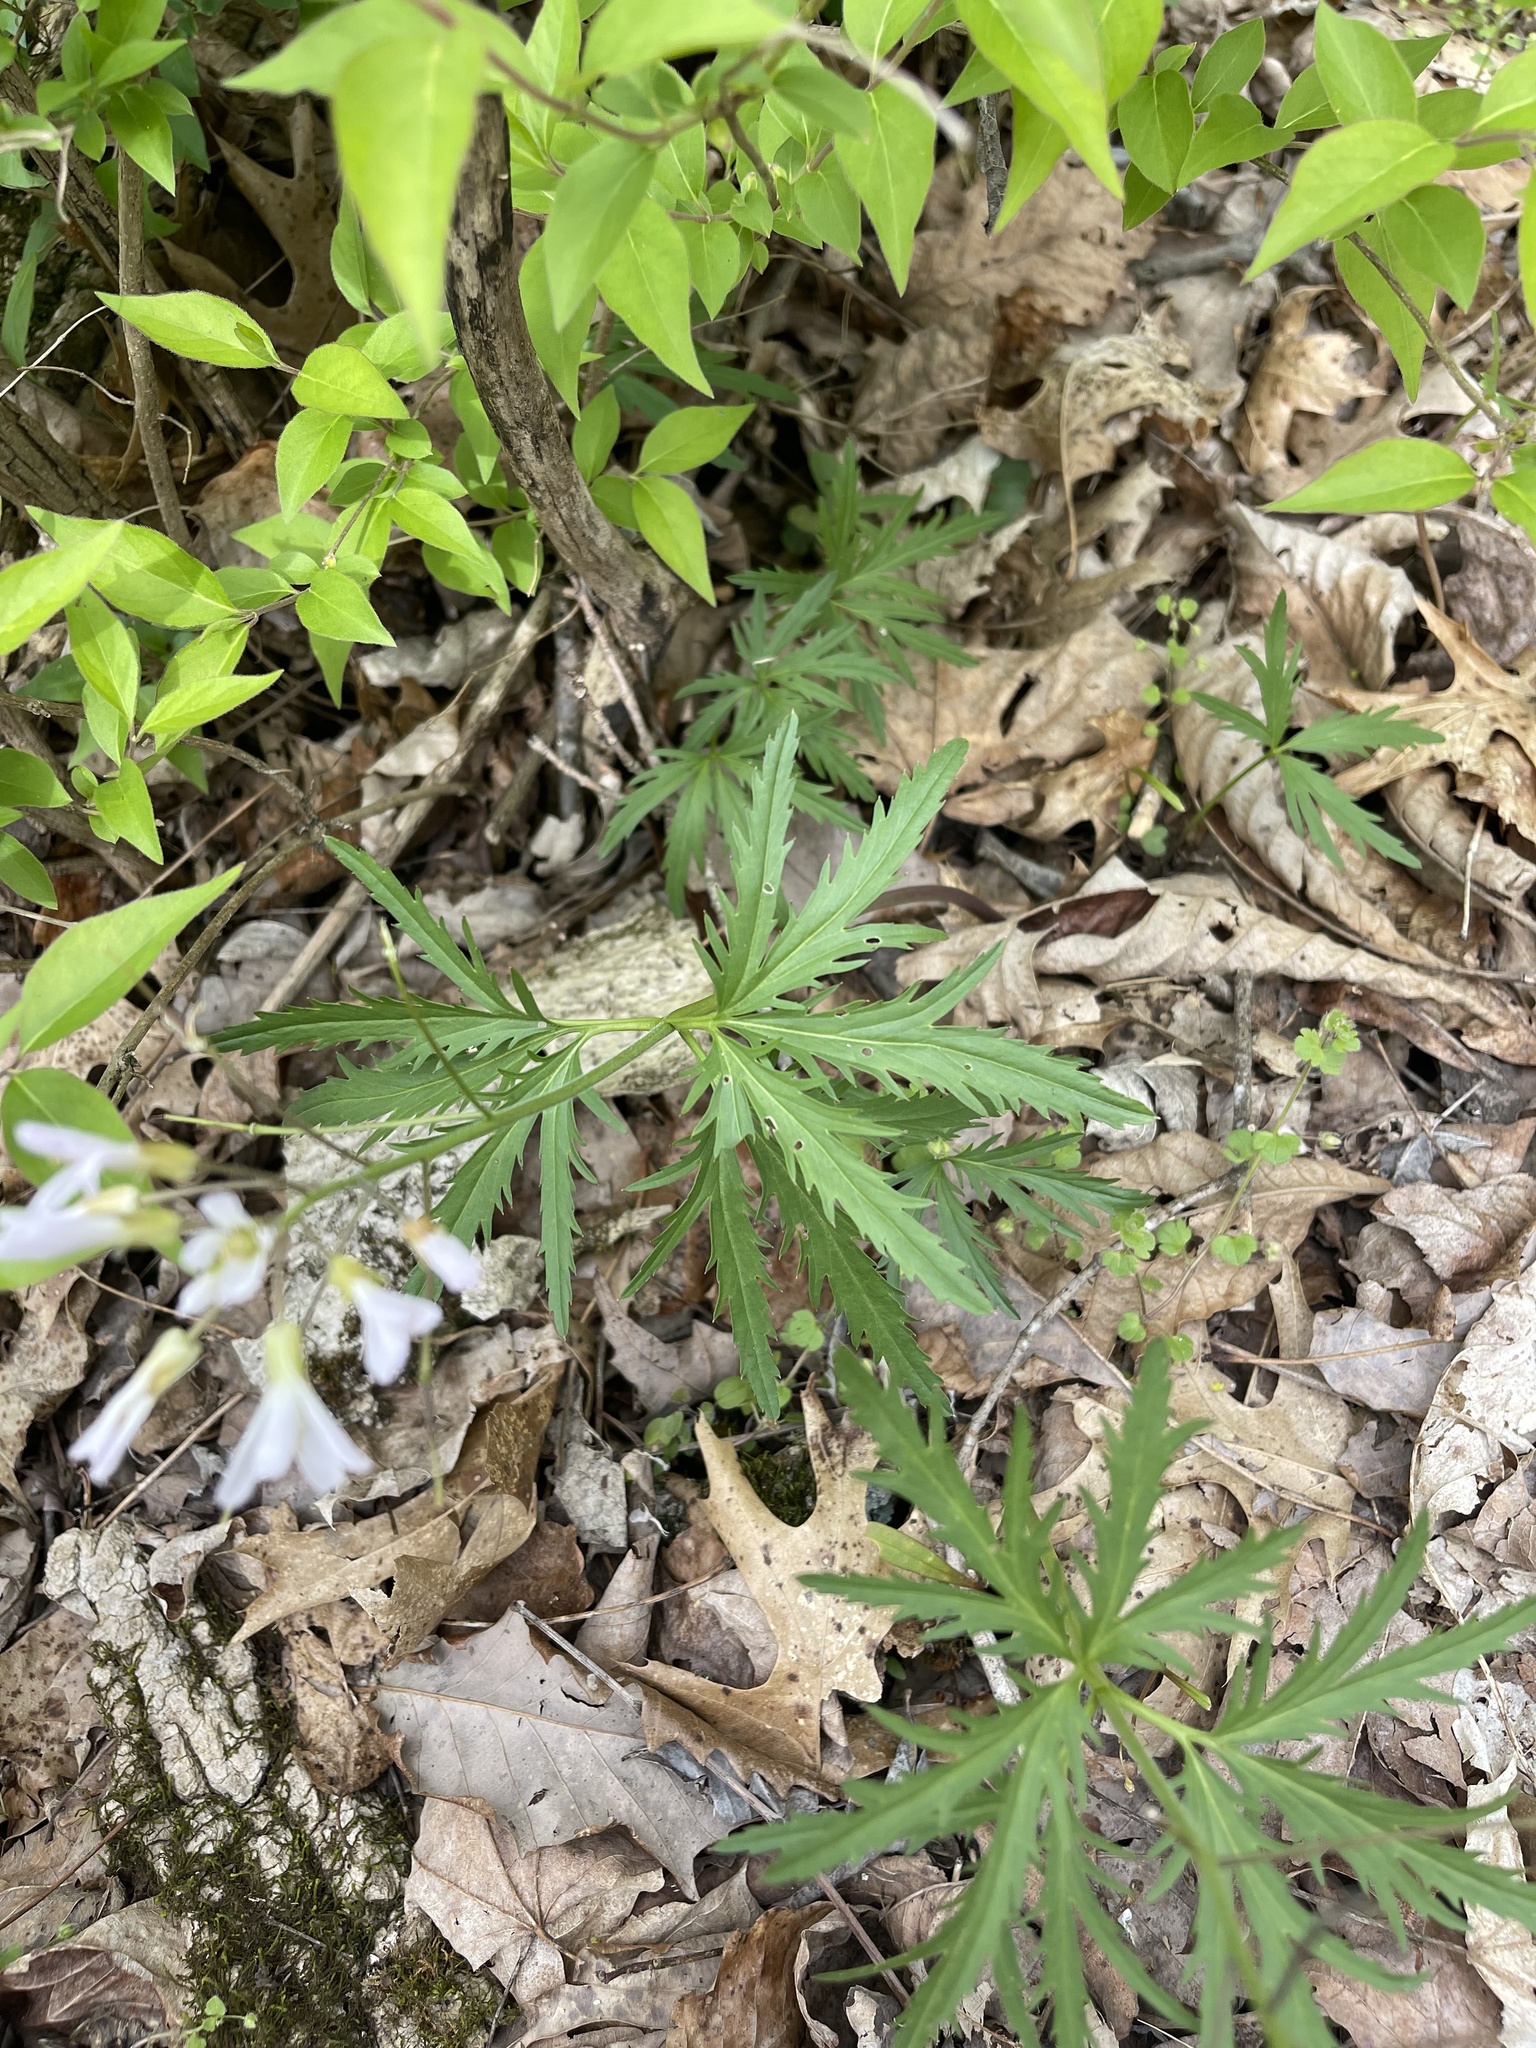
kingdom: Plantae
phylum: Tracheophyta
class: Magnoliopsida
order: Brassicales
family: Brassicaceae
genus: Cardamine
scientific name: Cardamine concatenata
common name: Cut-leaf toothcup
